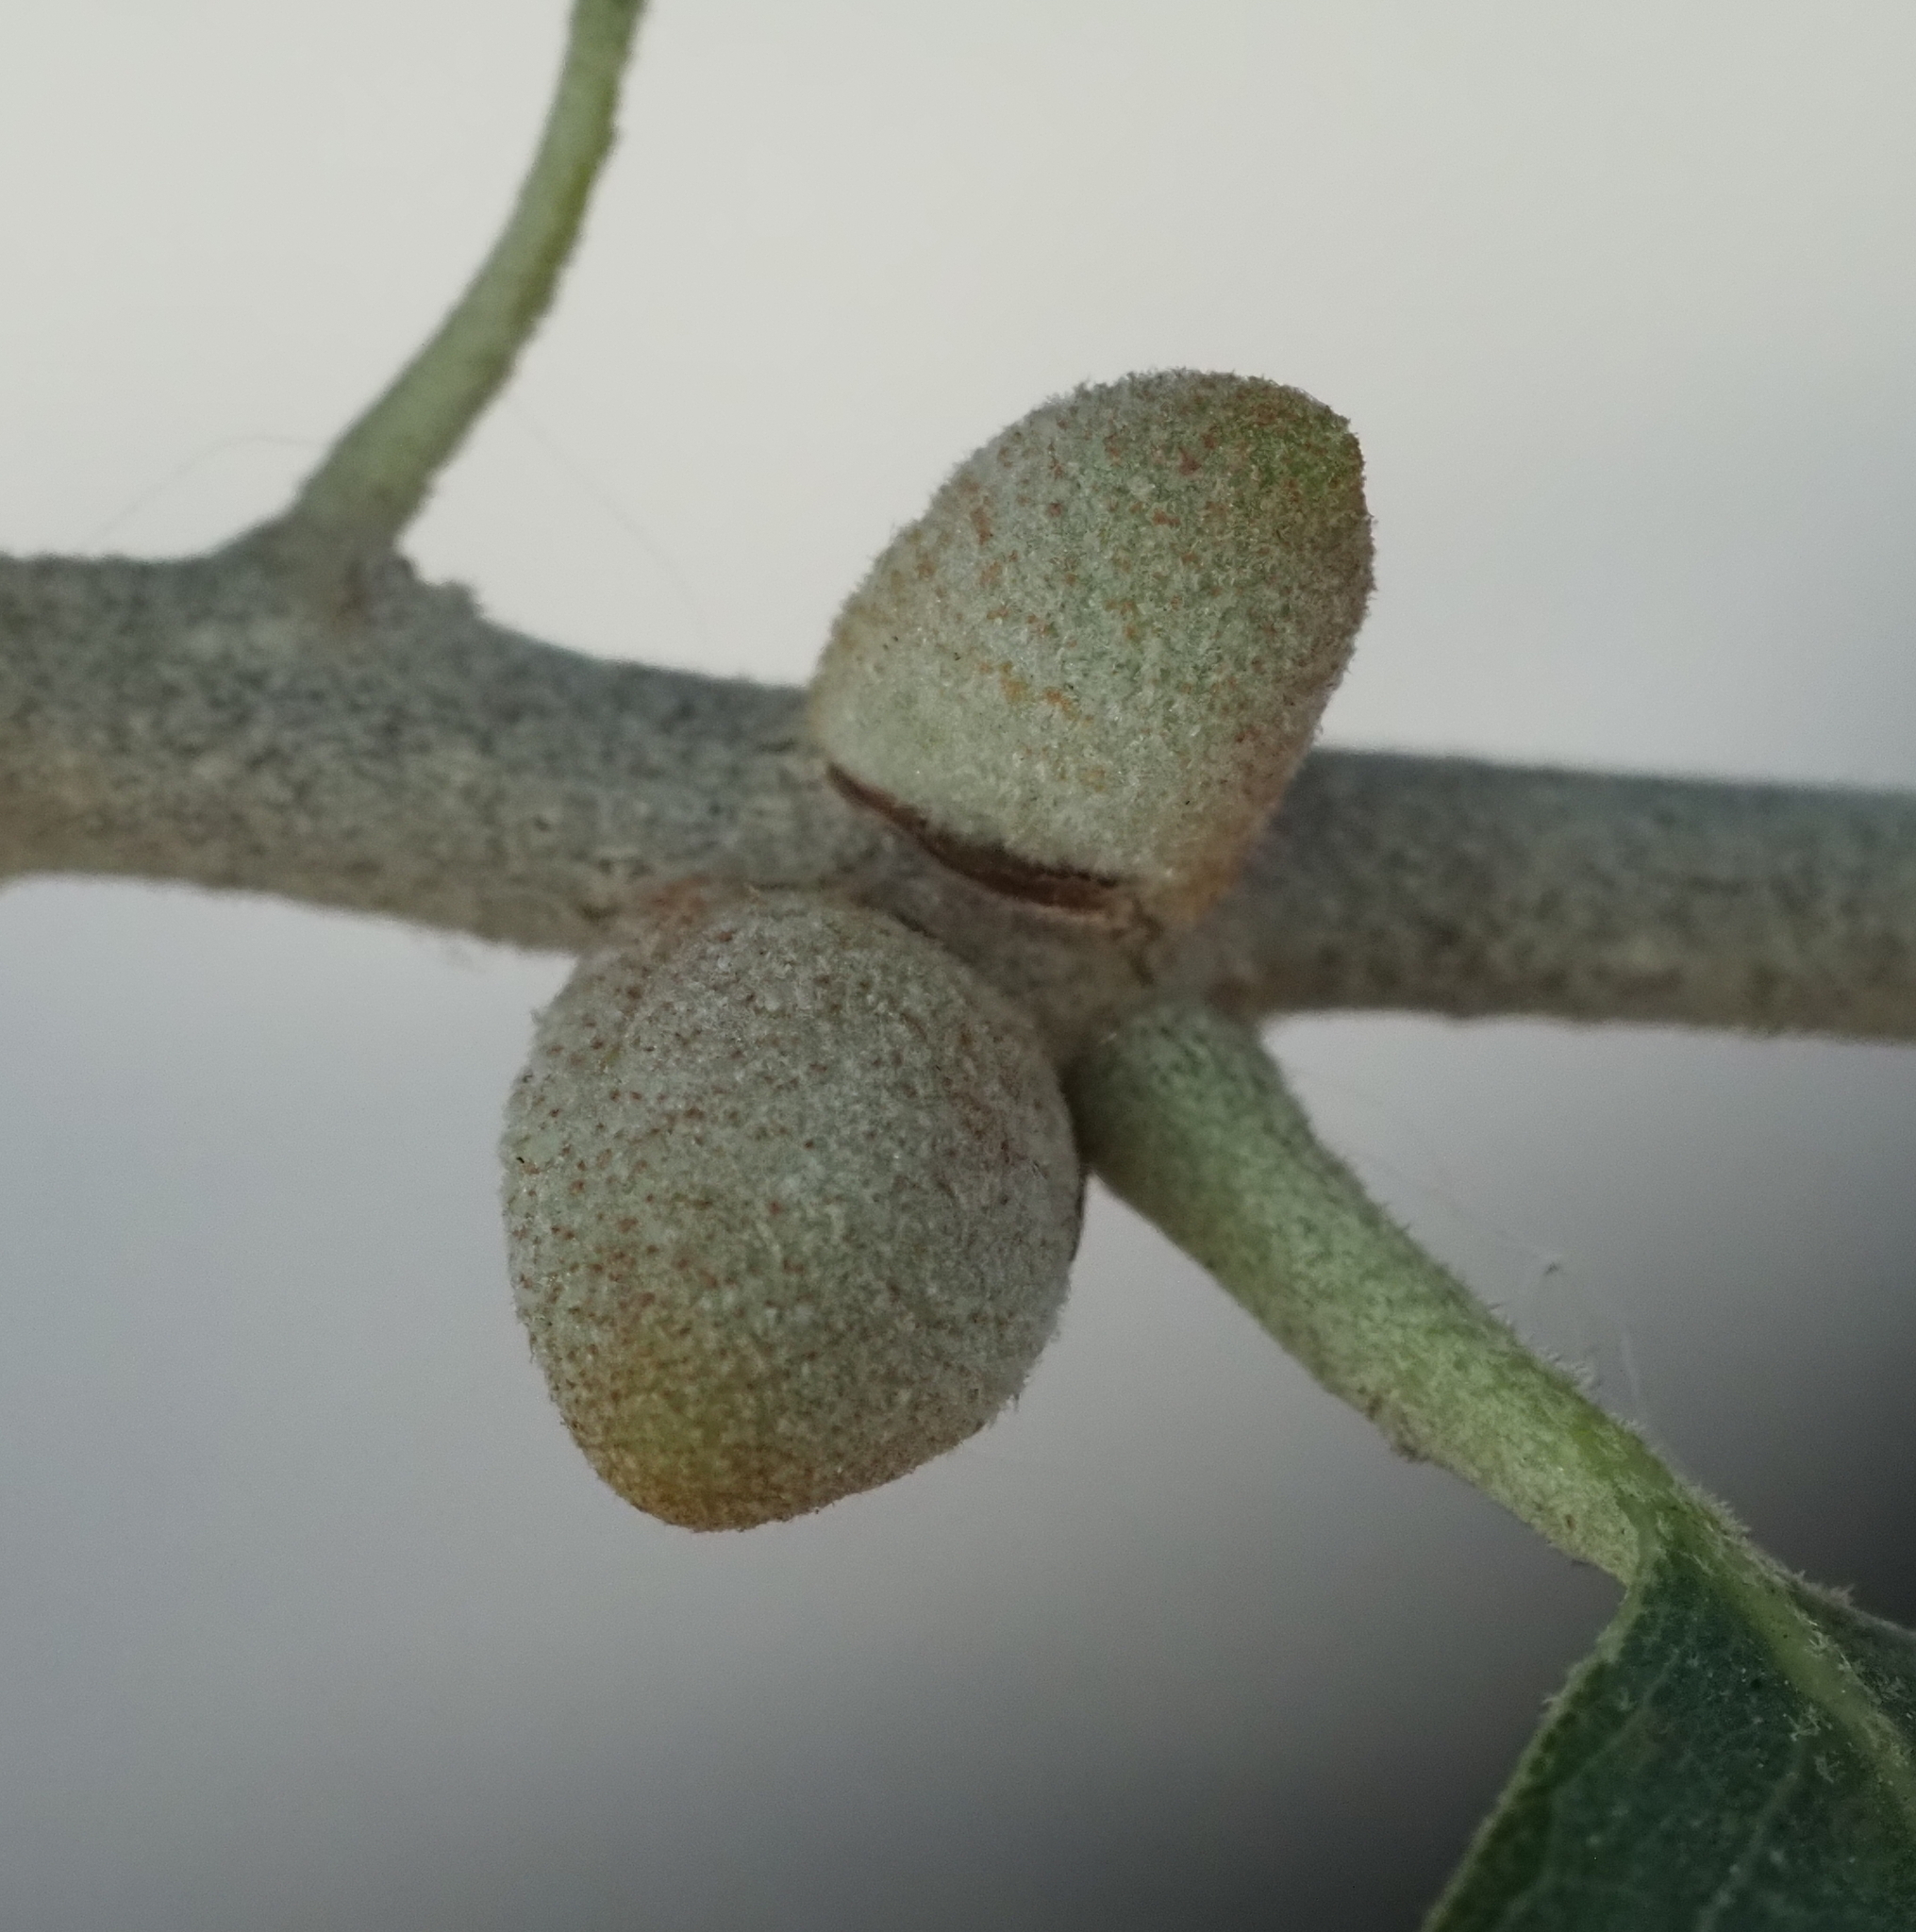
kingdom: Animalia
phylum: Arthropoda
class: Insecta
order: Hymenoptera
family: Cynipidae
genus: Disholcaspis
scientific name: Disholcaspis
